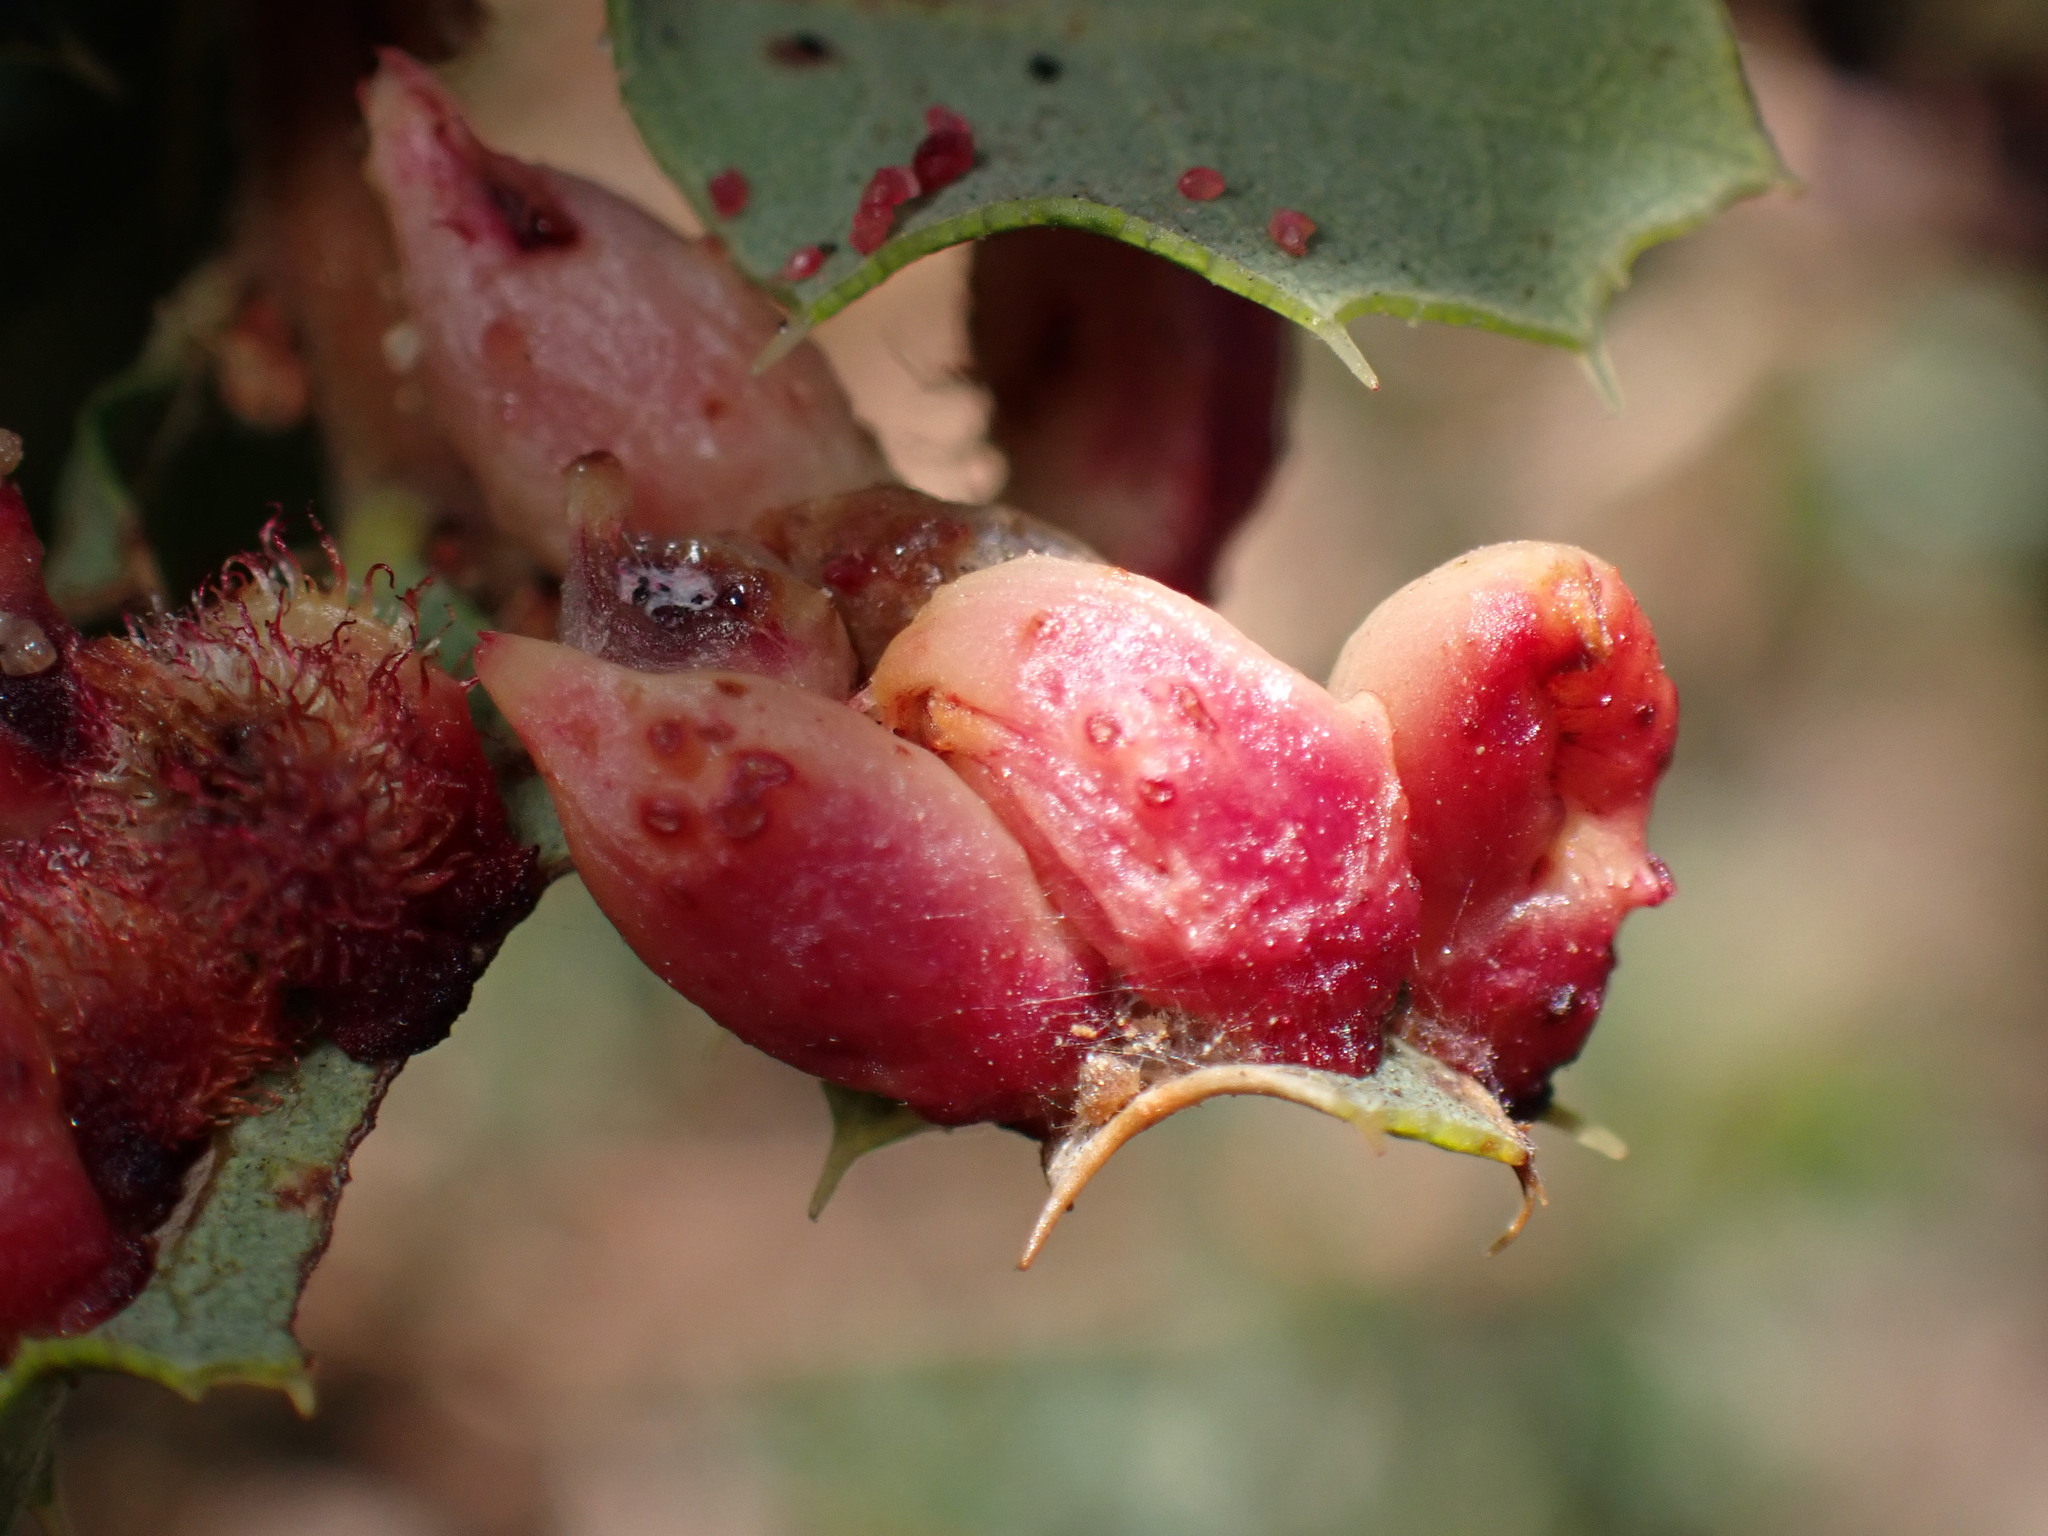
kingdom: Animalia
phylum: Arthropoda
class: Insecta
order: Hymenoptera
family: Cynipidae
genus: Andricus
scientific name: Andricus
